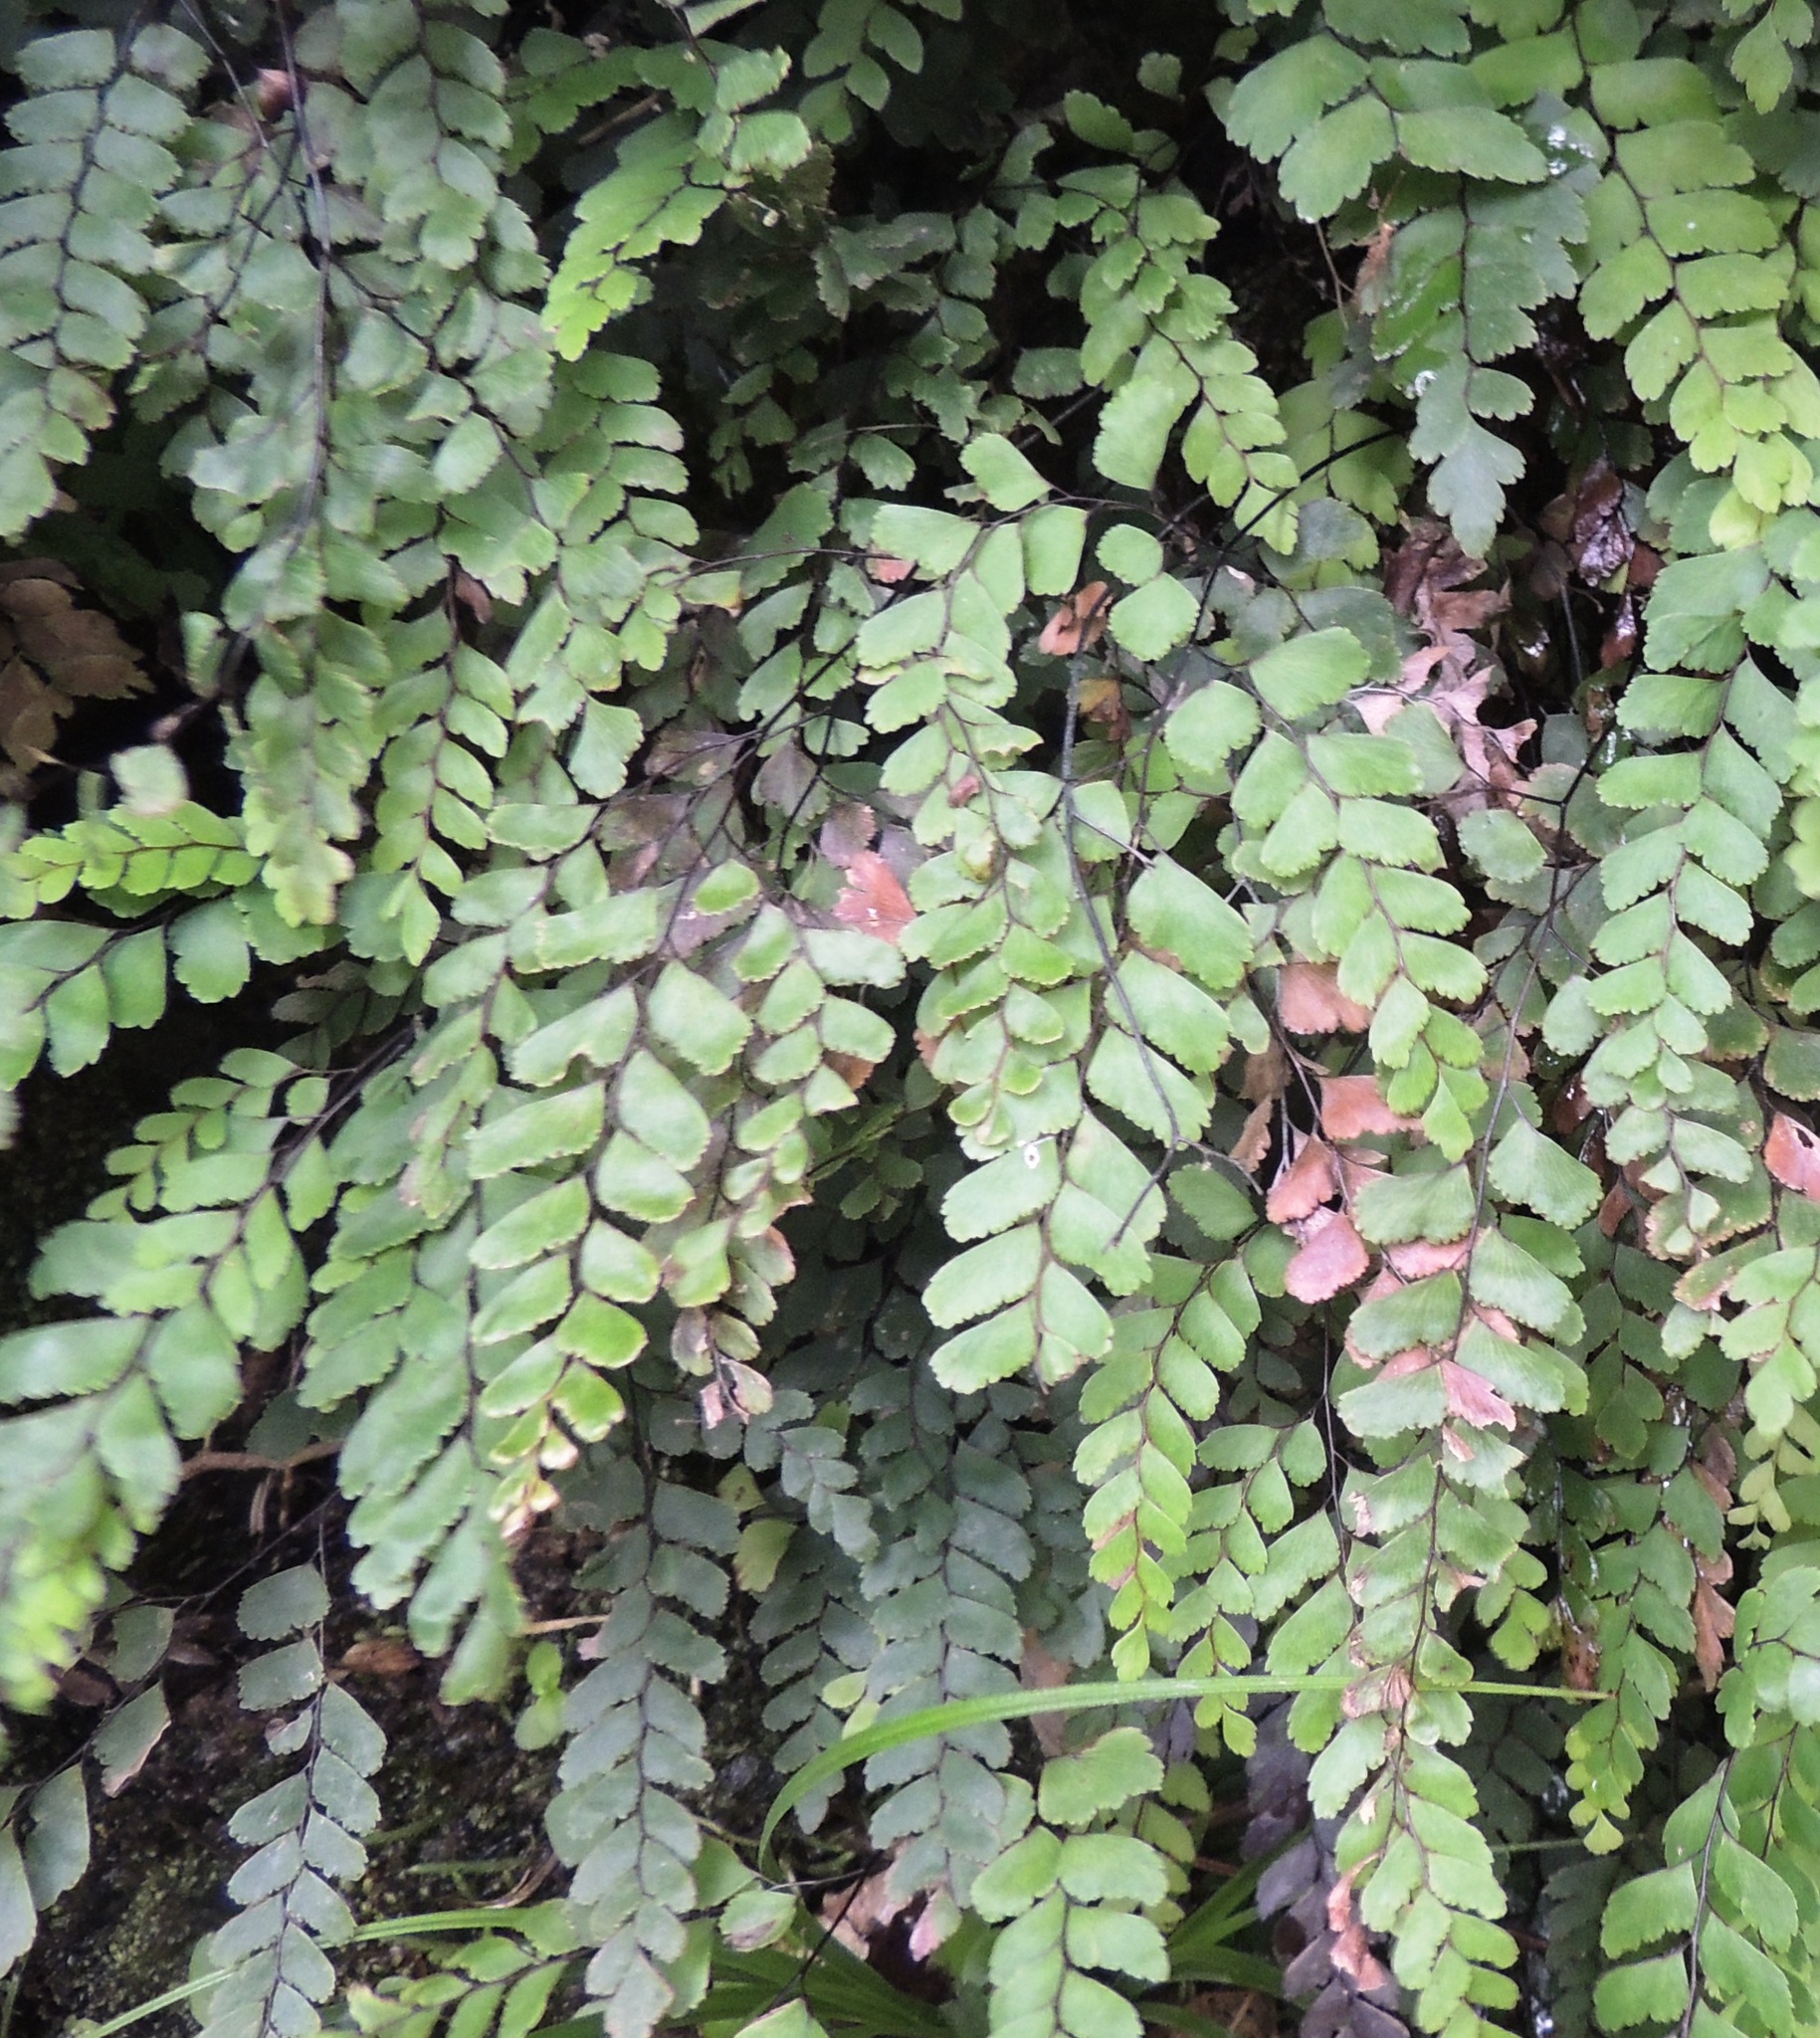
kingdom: Plantae
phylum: Tracheophyta
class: Polypodiopsida
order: Polypodiales
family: Pteridaceae
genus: Adiantum
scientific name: Adiantum cunninghamii
